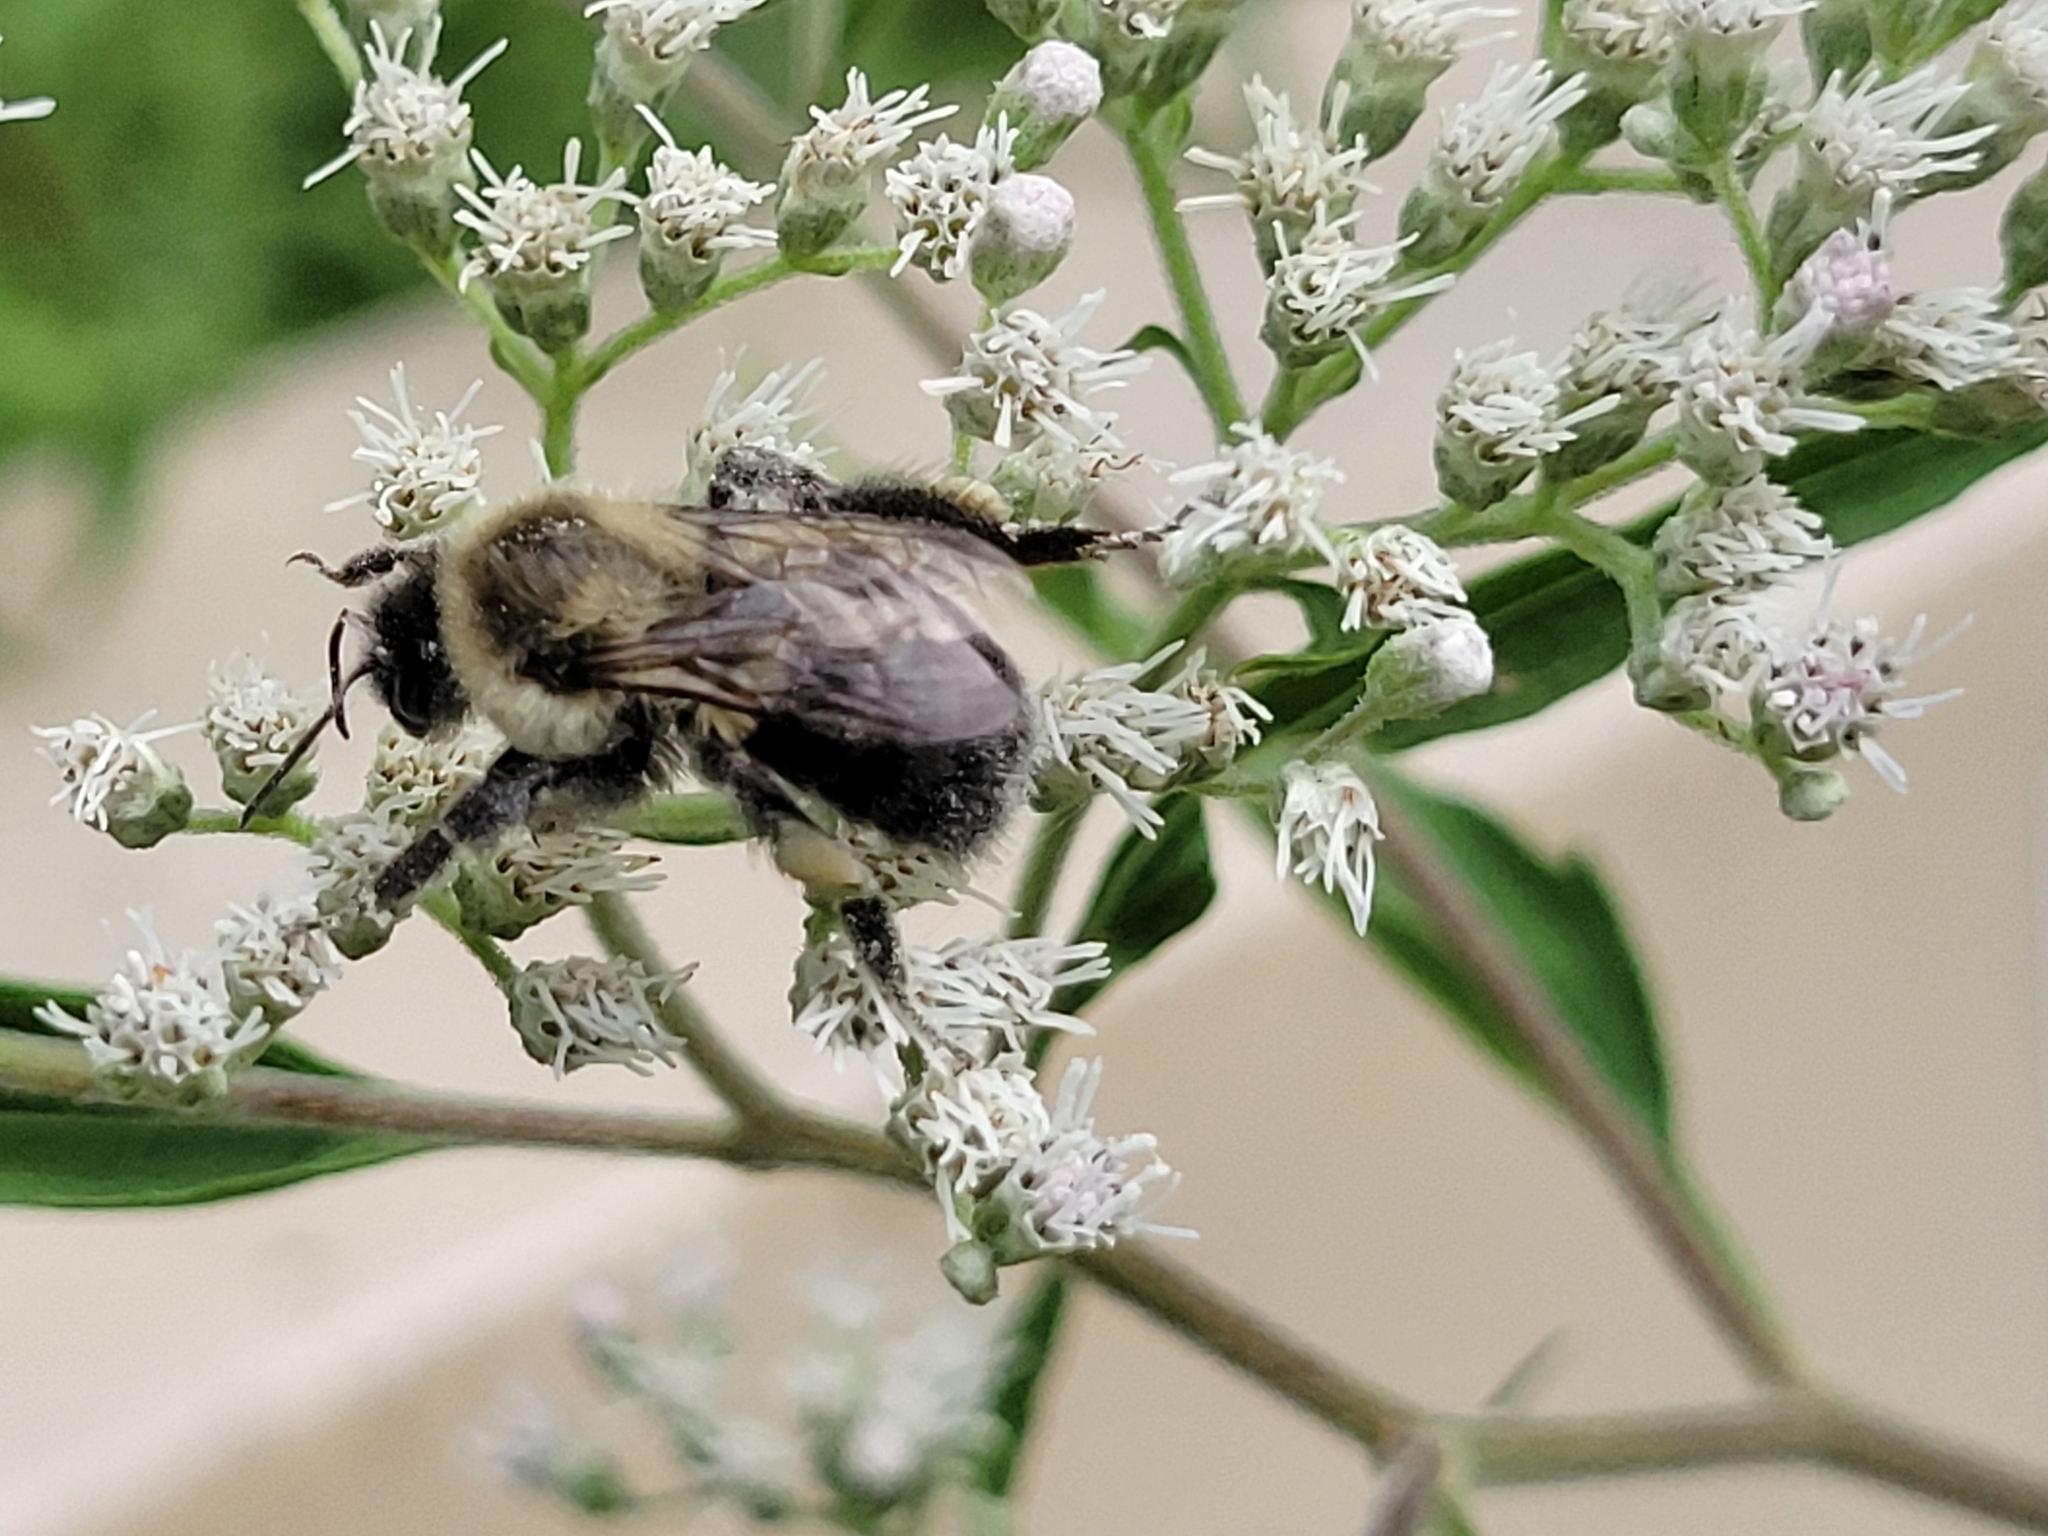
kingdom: Animalia
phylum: Arthropoda
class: Insecta
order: Hymenoptera
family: Apidae
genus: Bombus
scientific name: Bombus impatiens
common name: Common eastern bumble bee
